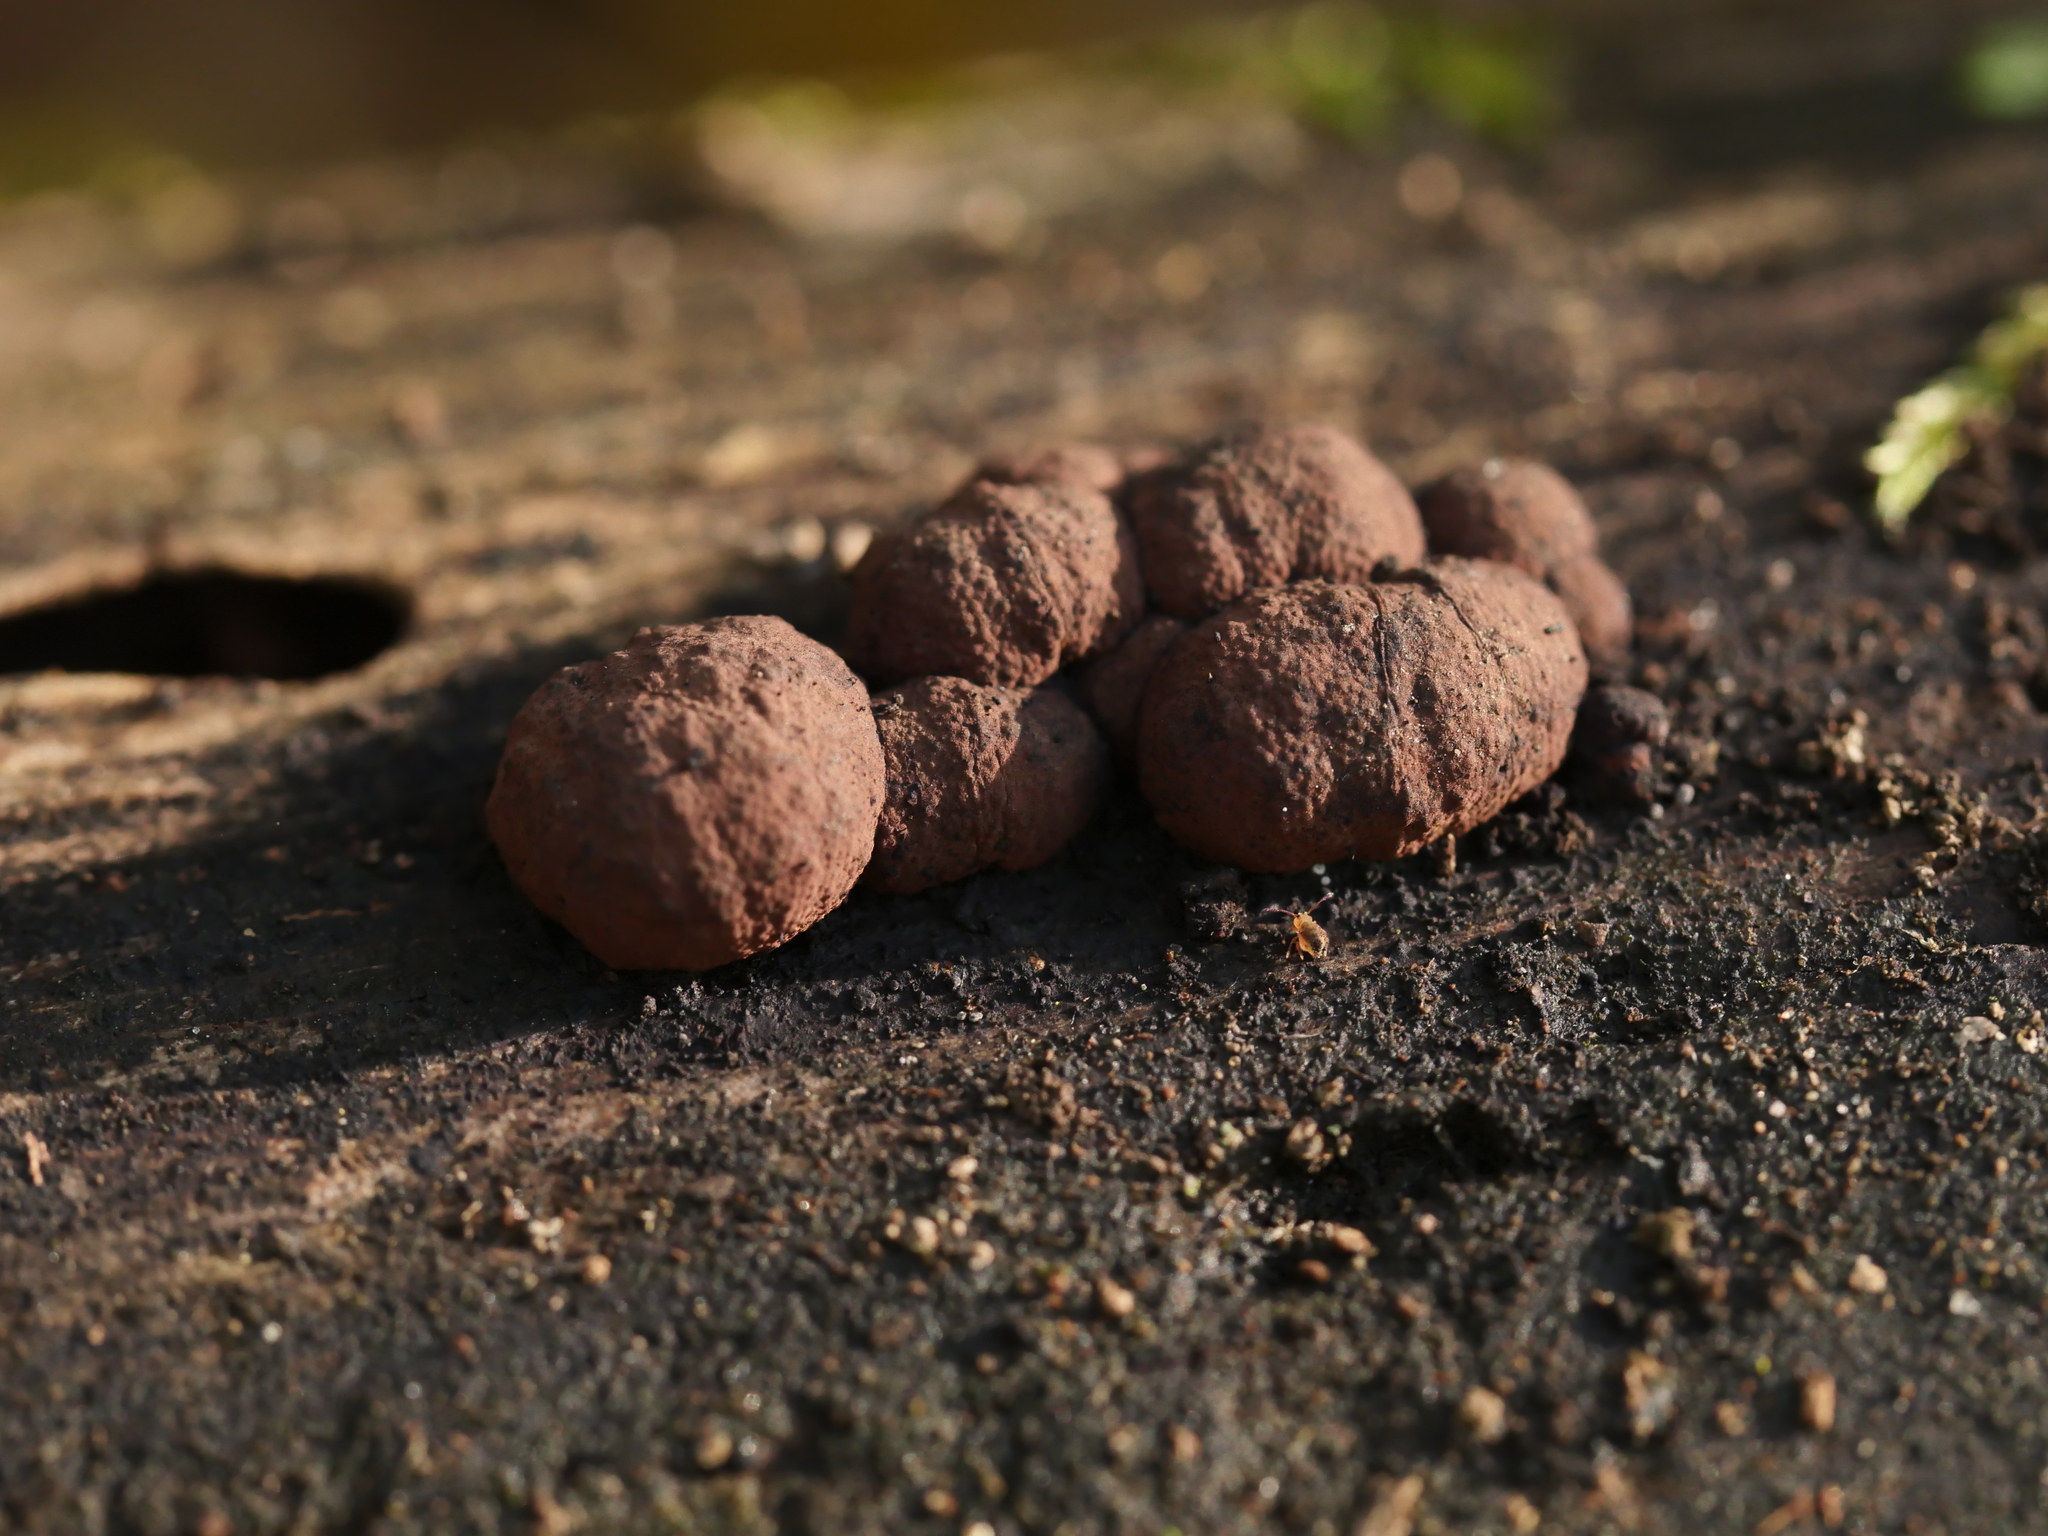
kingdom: Fungi
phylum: Ascomycota
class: Sordariomycetes
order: Xylariales
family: Hypoxylaceae
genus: Hypoxylon
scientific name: Hypoxylon fragiforme
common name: Beech woodwart
